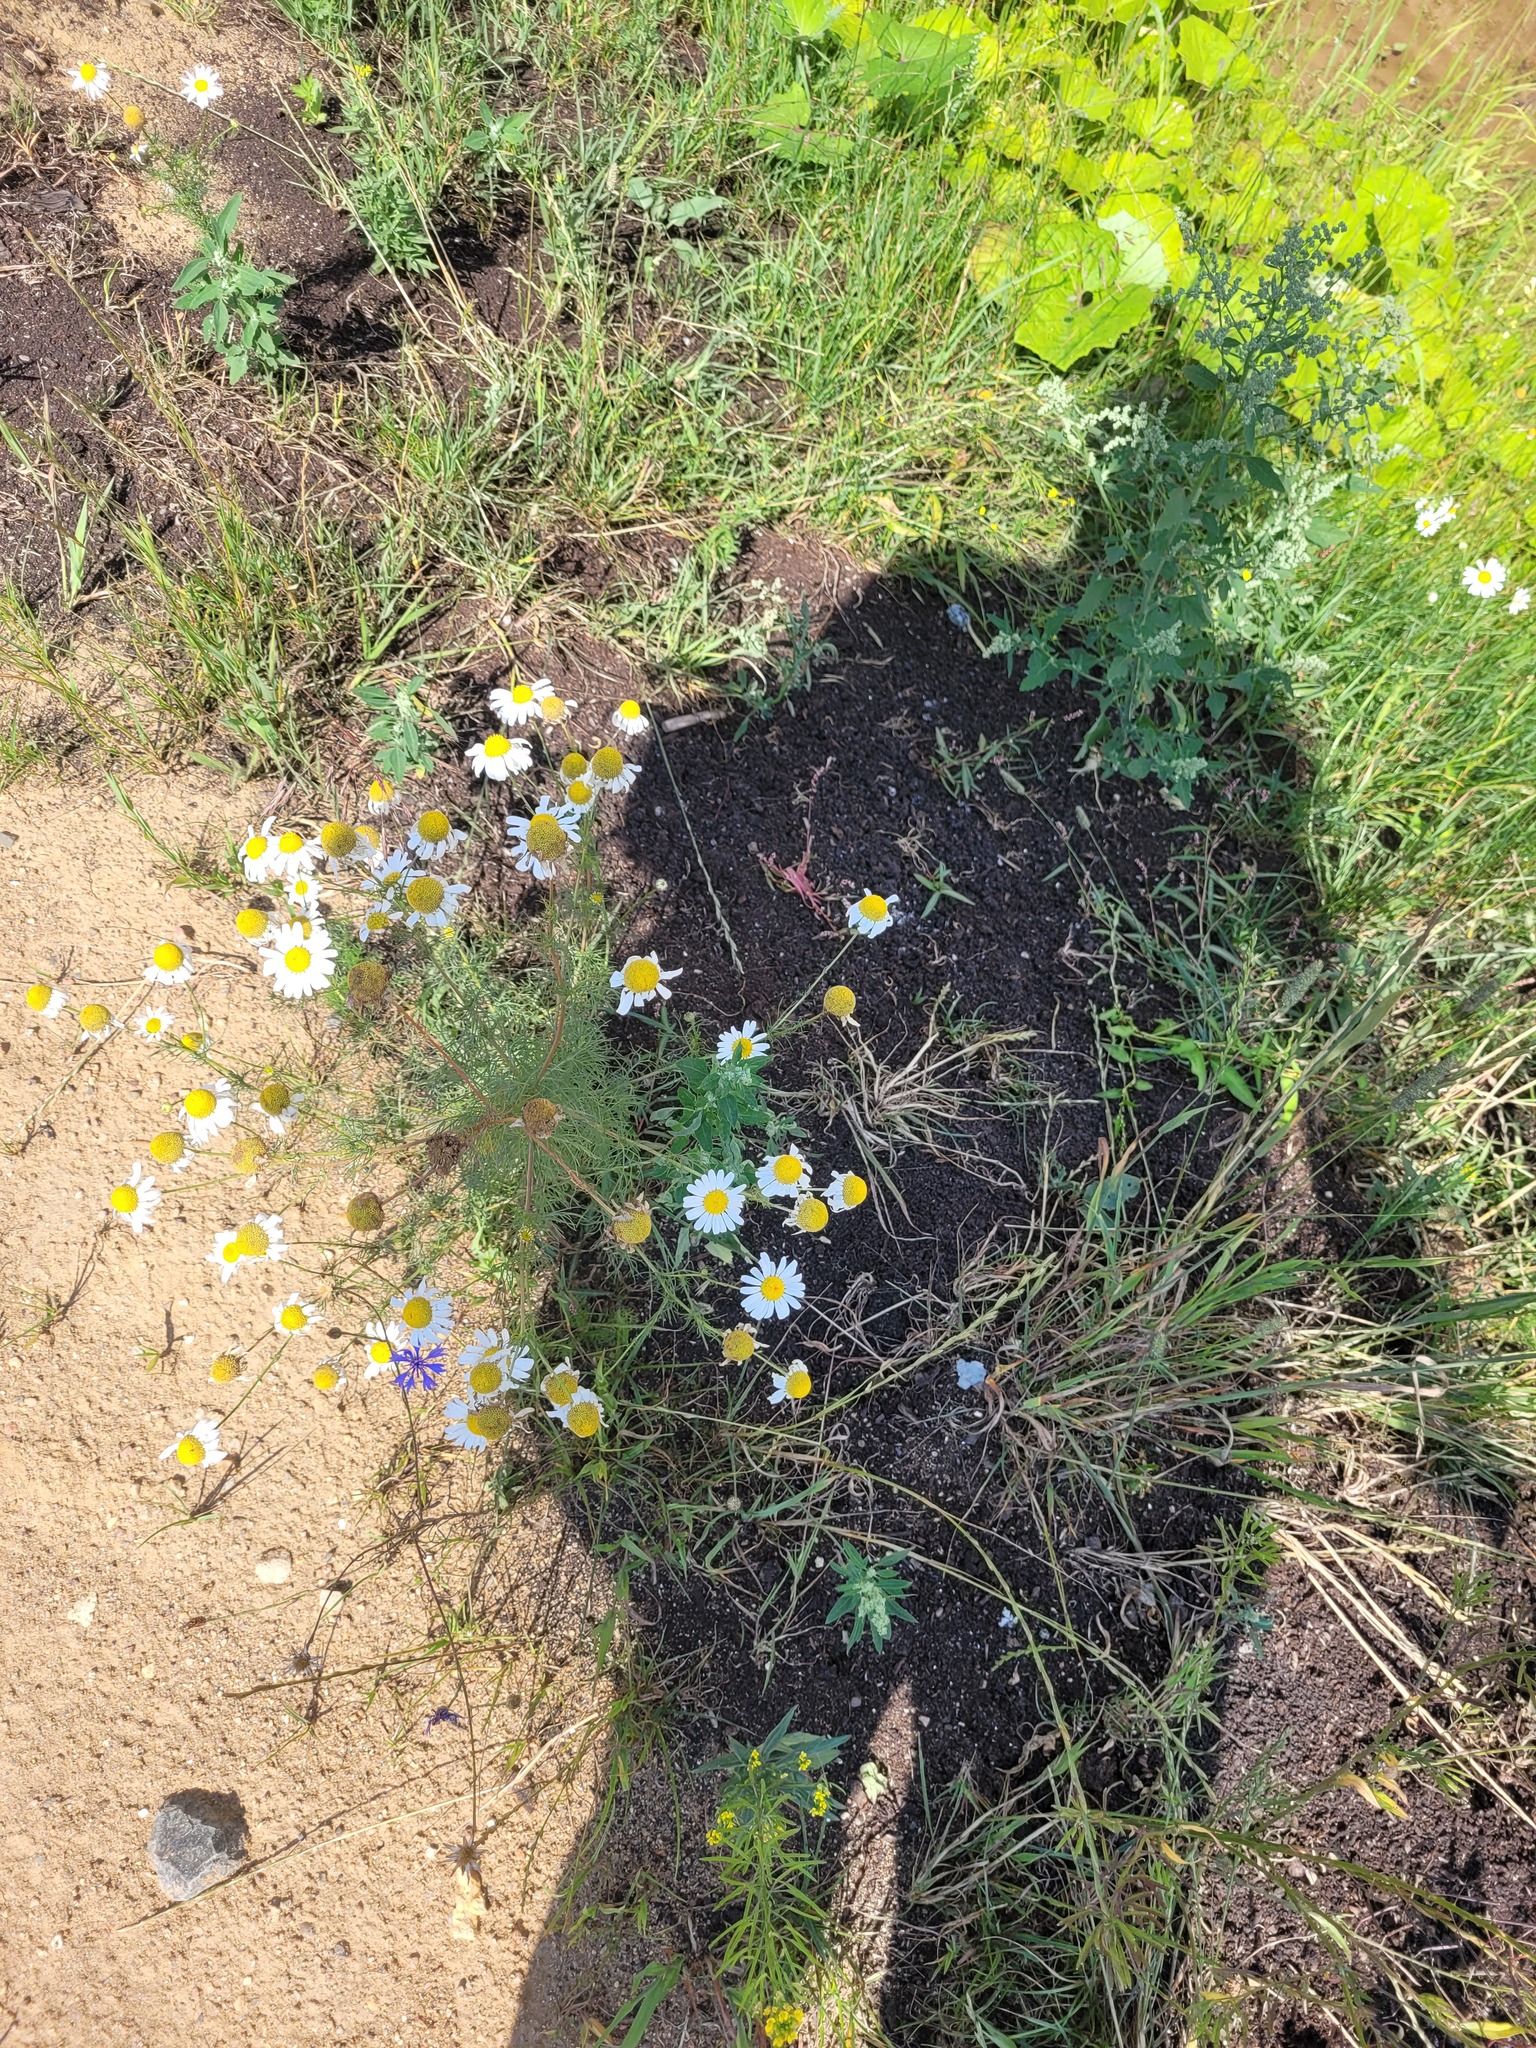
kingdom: Plantae
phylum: Tracheophyta
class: Magnoliopsida
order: Asterales
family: Asteraceae
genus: Tripleurospermum
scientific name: Tripleurospermum inodorum
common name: Scentless mayweed
